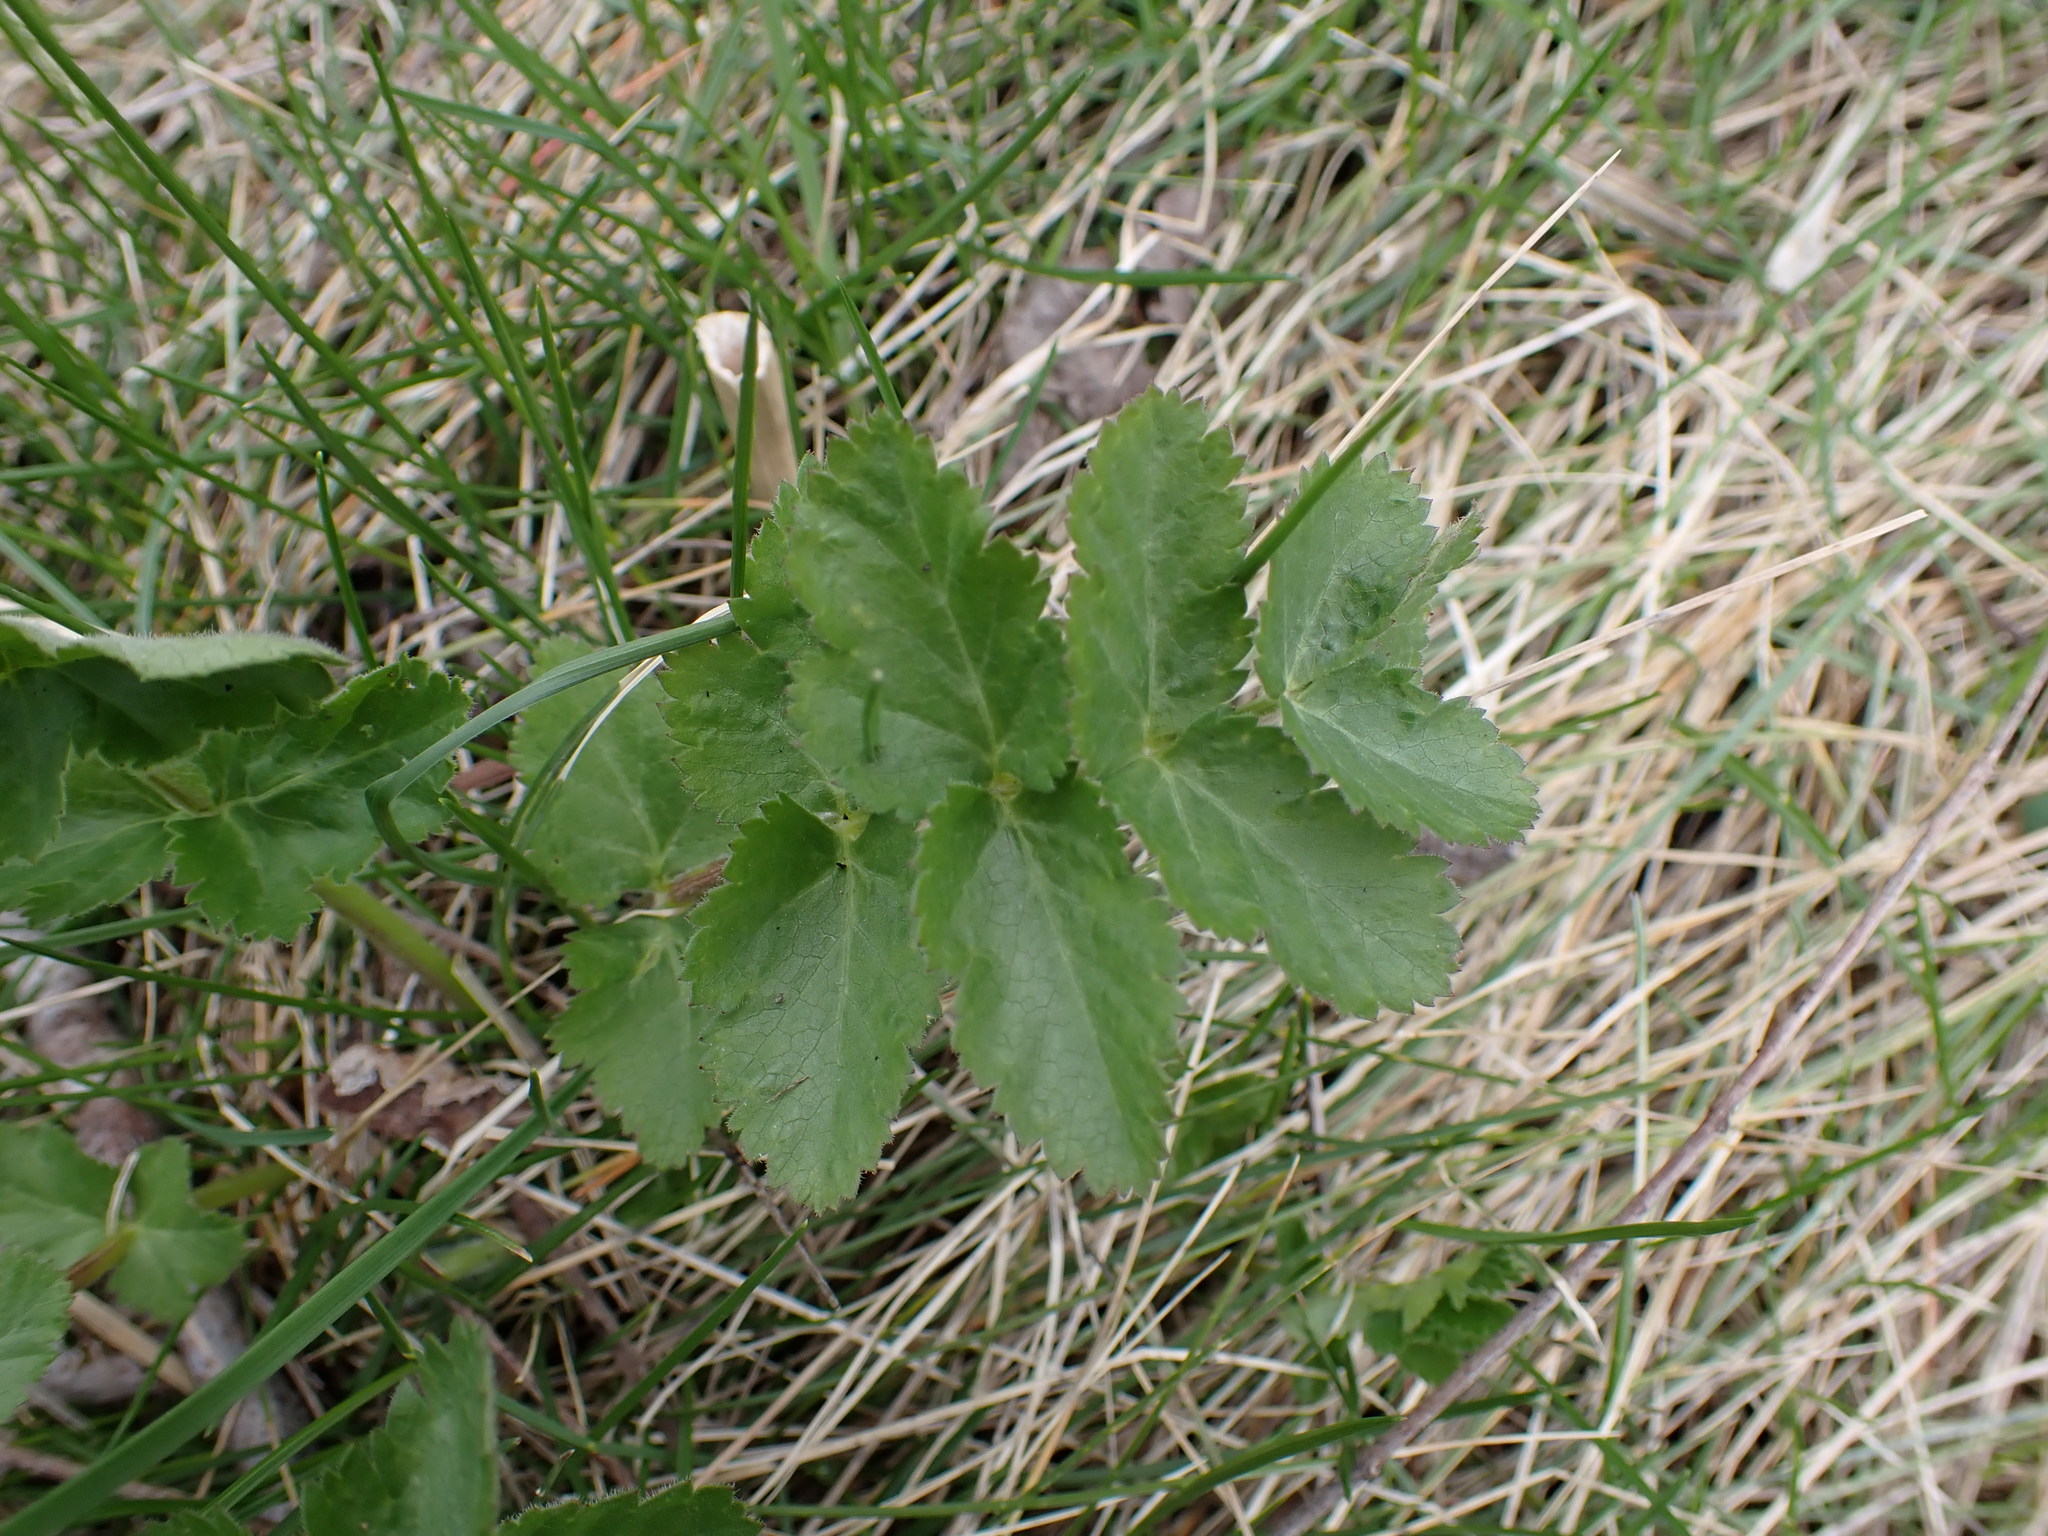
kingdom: Plantae
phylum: Tracheophyta
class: Magnoliopsida
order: Apiales
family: Apiaceae
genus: Pastinaca
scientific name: Pastinaca sativa
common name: Wild parsnip
